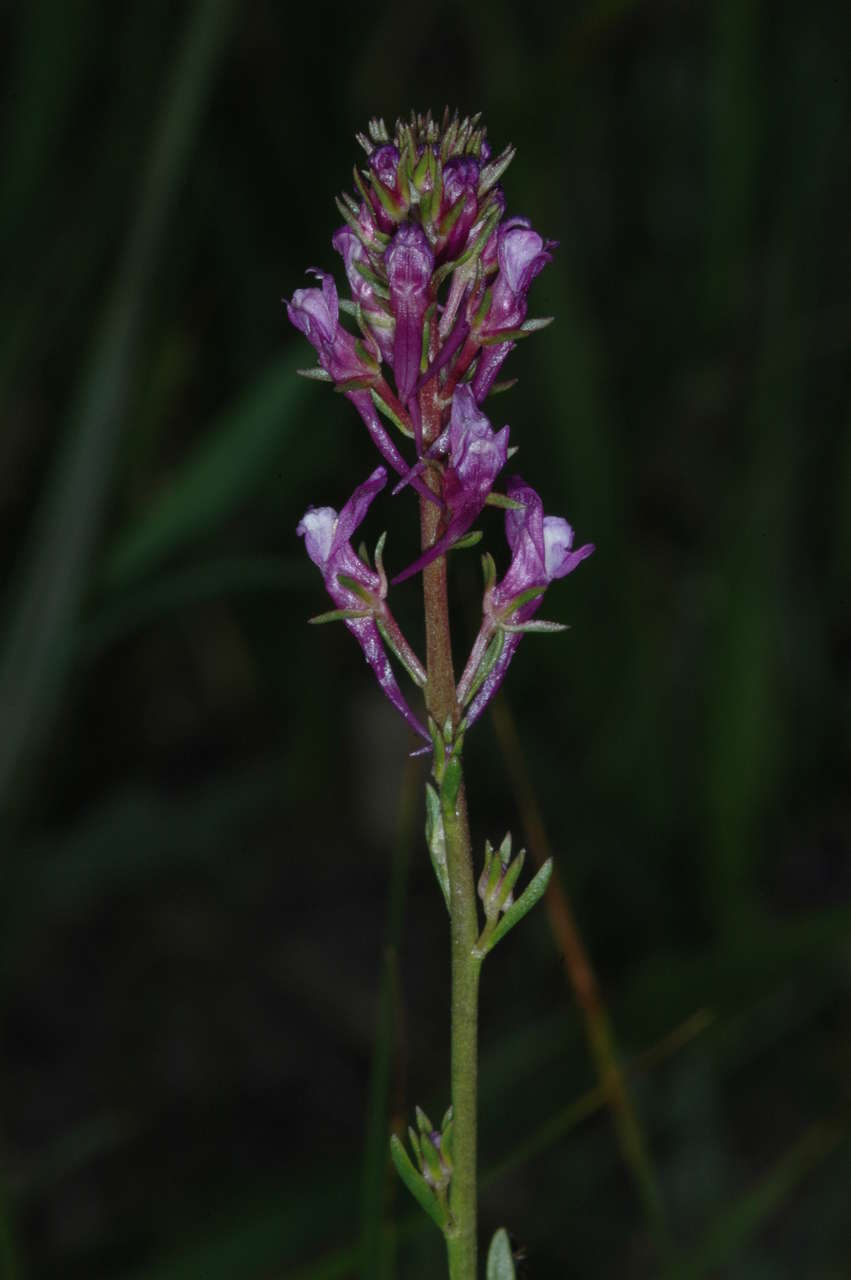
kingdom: Plantae
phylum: Tracheophyta
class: Magnoliopsida
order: Lamiales
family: Plantaginaceae
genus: Linaria
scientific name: Linaria pelisseriana
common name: Jersey toadflax
